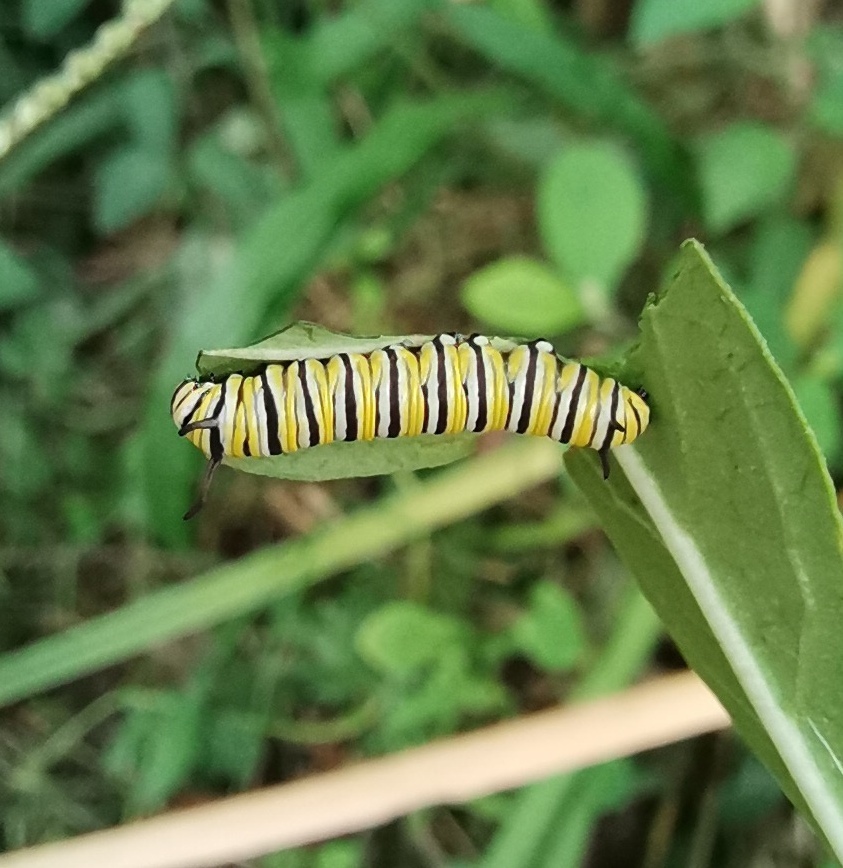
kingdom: Animalia
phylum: Arthropoda
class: Insecta
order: Lepidoptera
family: Nymphalidae
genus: Danaus
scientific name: Danaus plexippus
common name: Monarch
